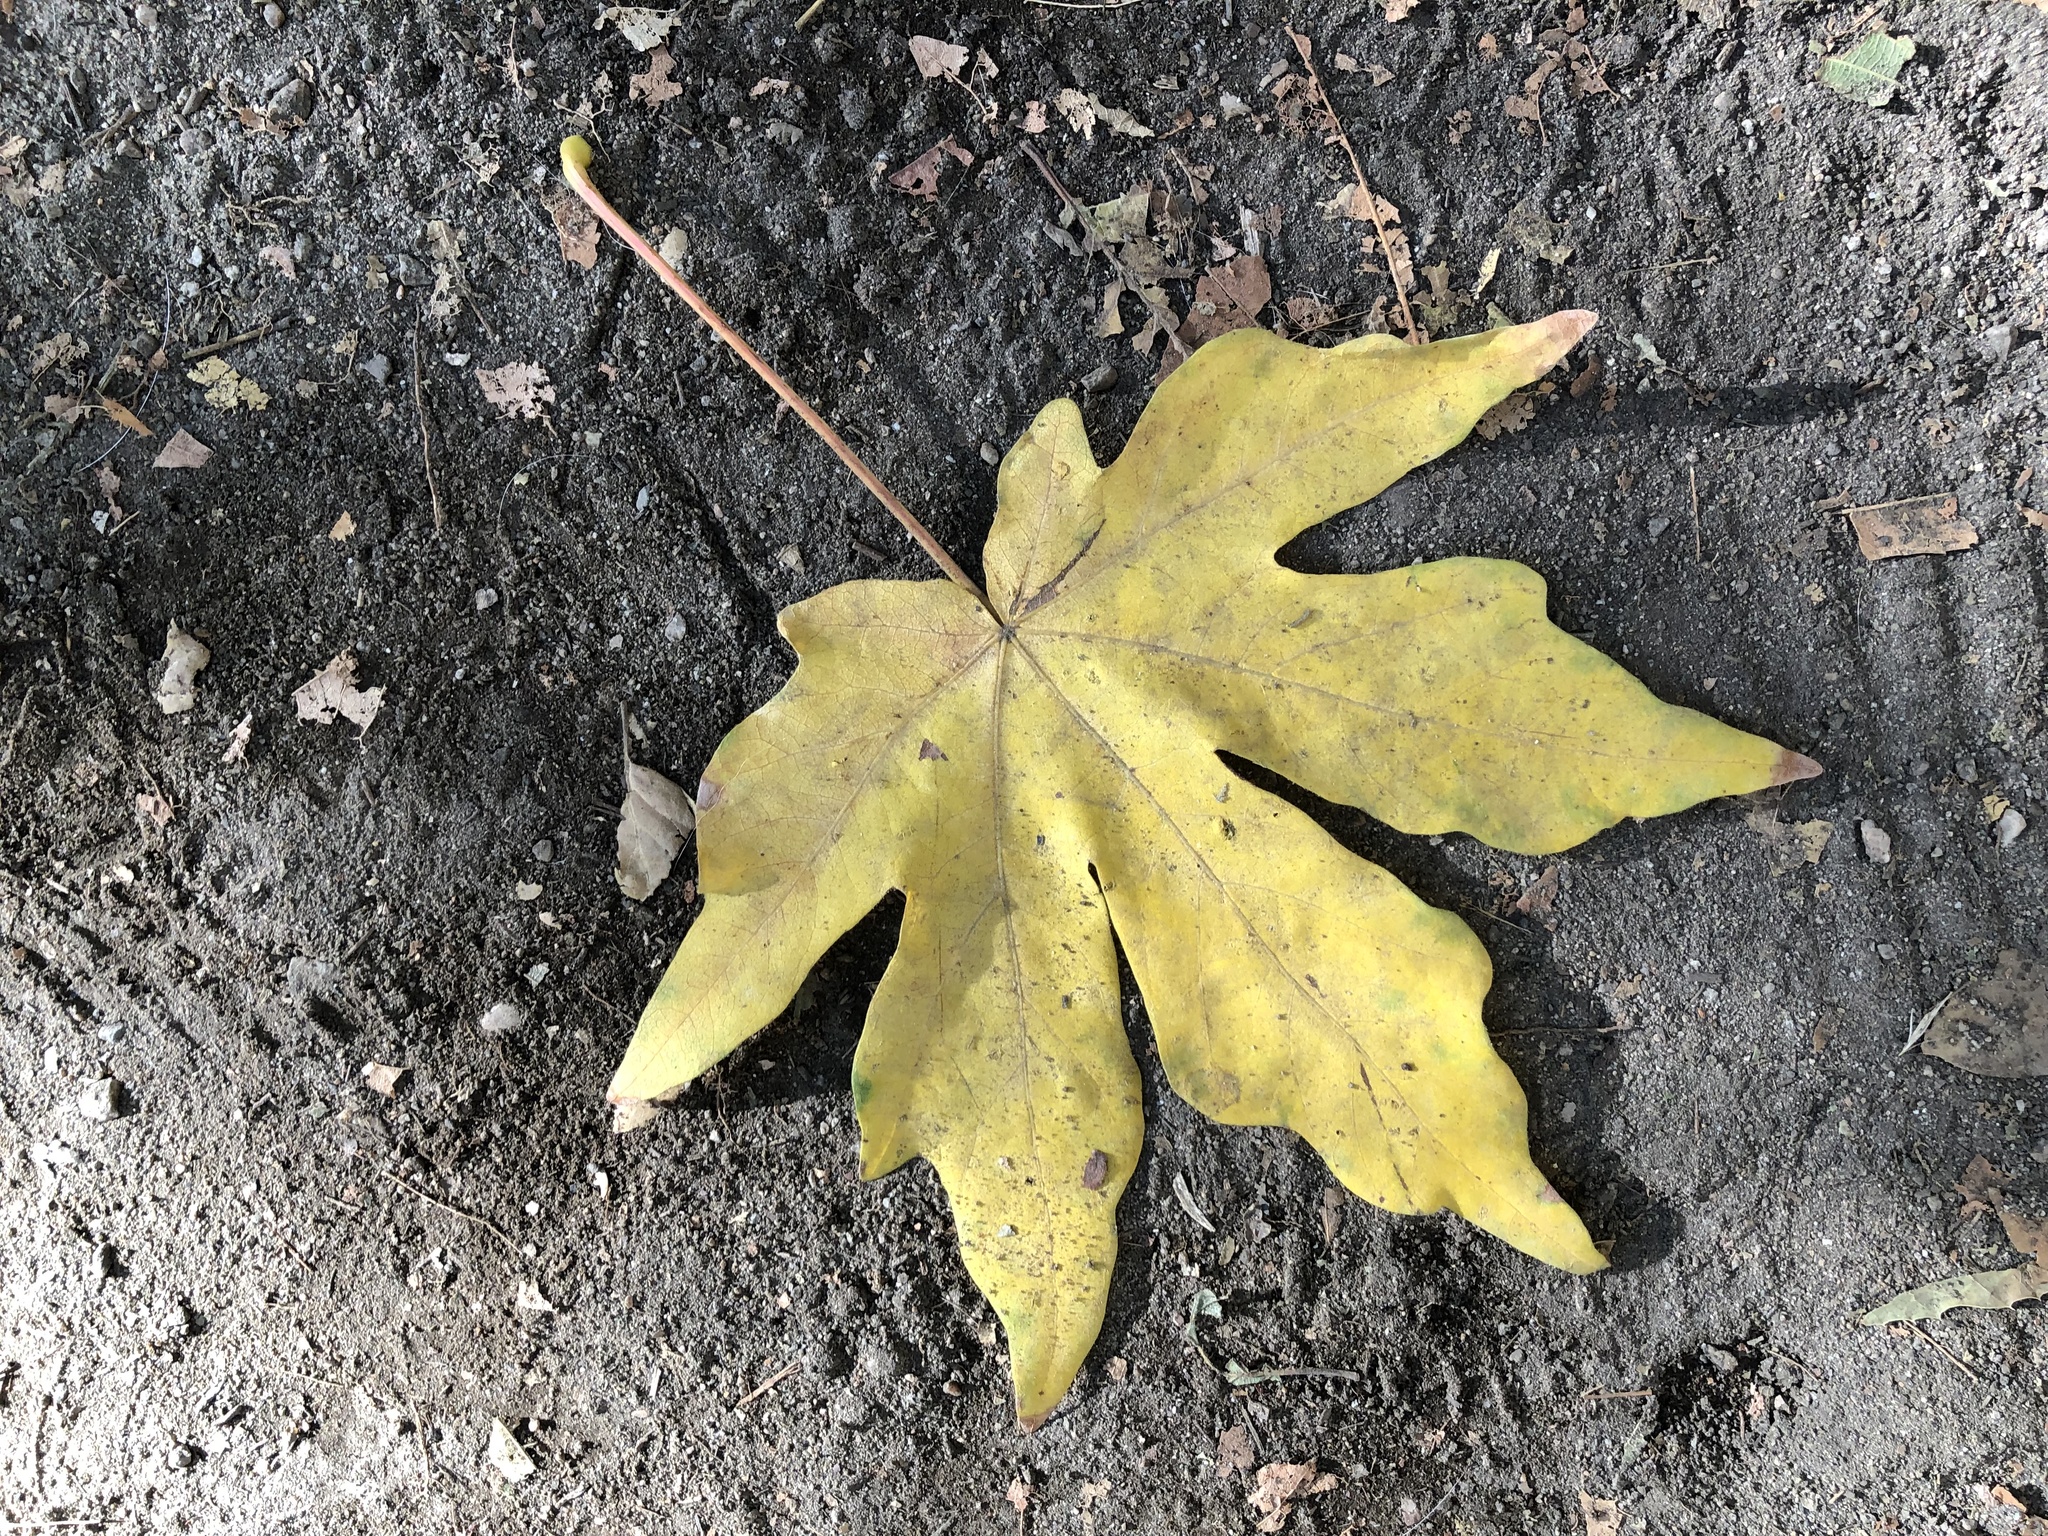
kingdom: Plantae
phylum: Tracheophyta
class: Magnoliopsida
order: Sapindales
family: Sapindaceae
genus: Acer
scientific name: Acer macrophyllum
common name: Oregon maple
